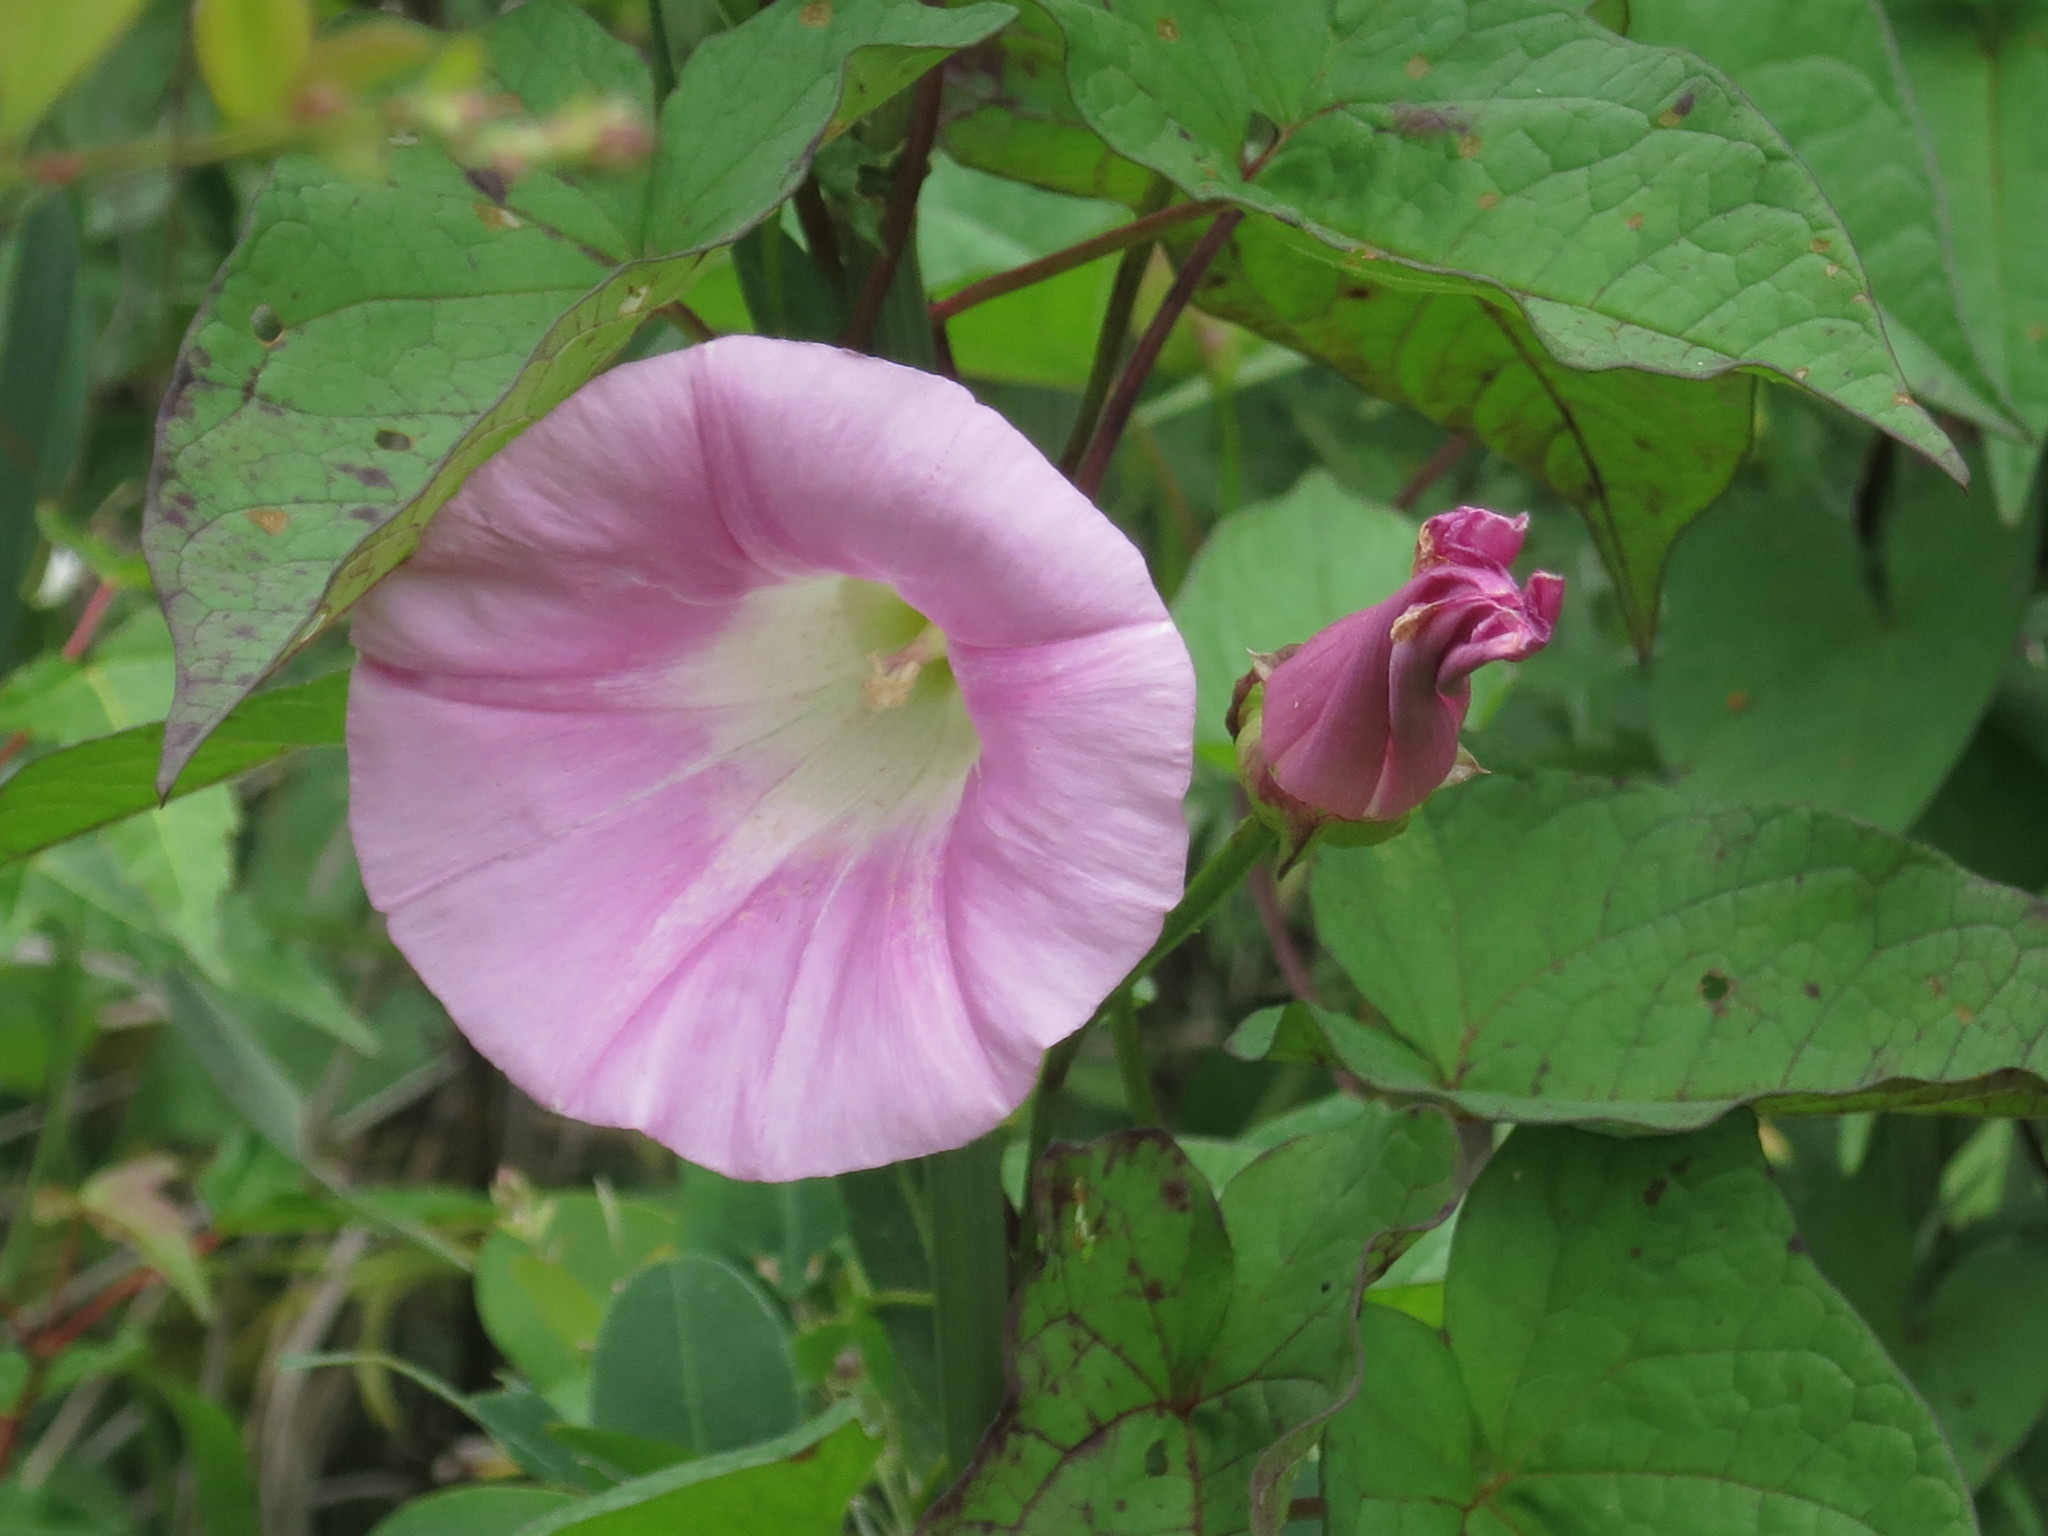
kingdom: Plantae
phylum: Tracheophyta
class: Magnoliopsida
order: Solanales
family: Convolvulaceae
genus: Calystegia
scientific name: Calystegia sepium
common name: Hedge bindweed
